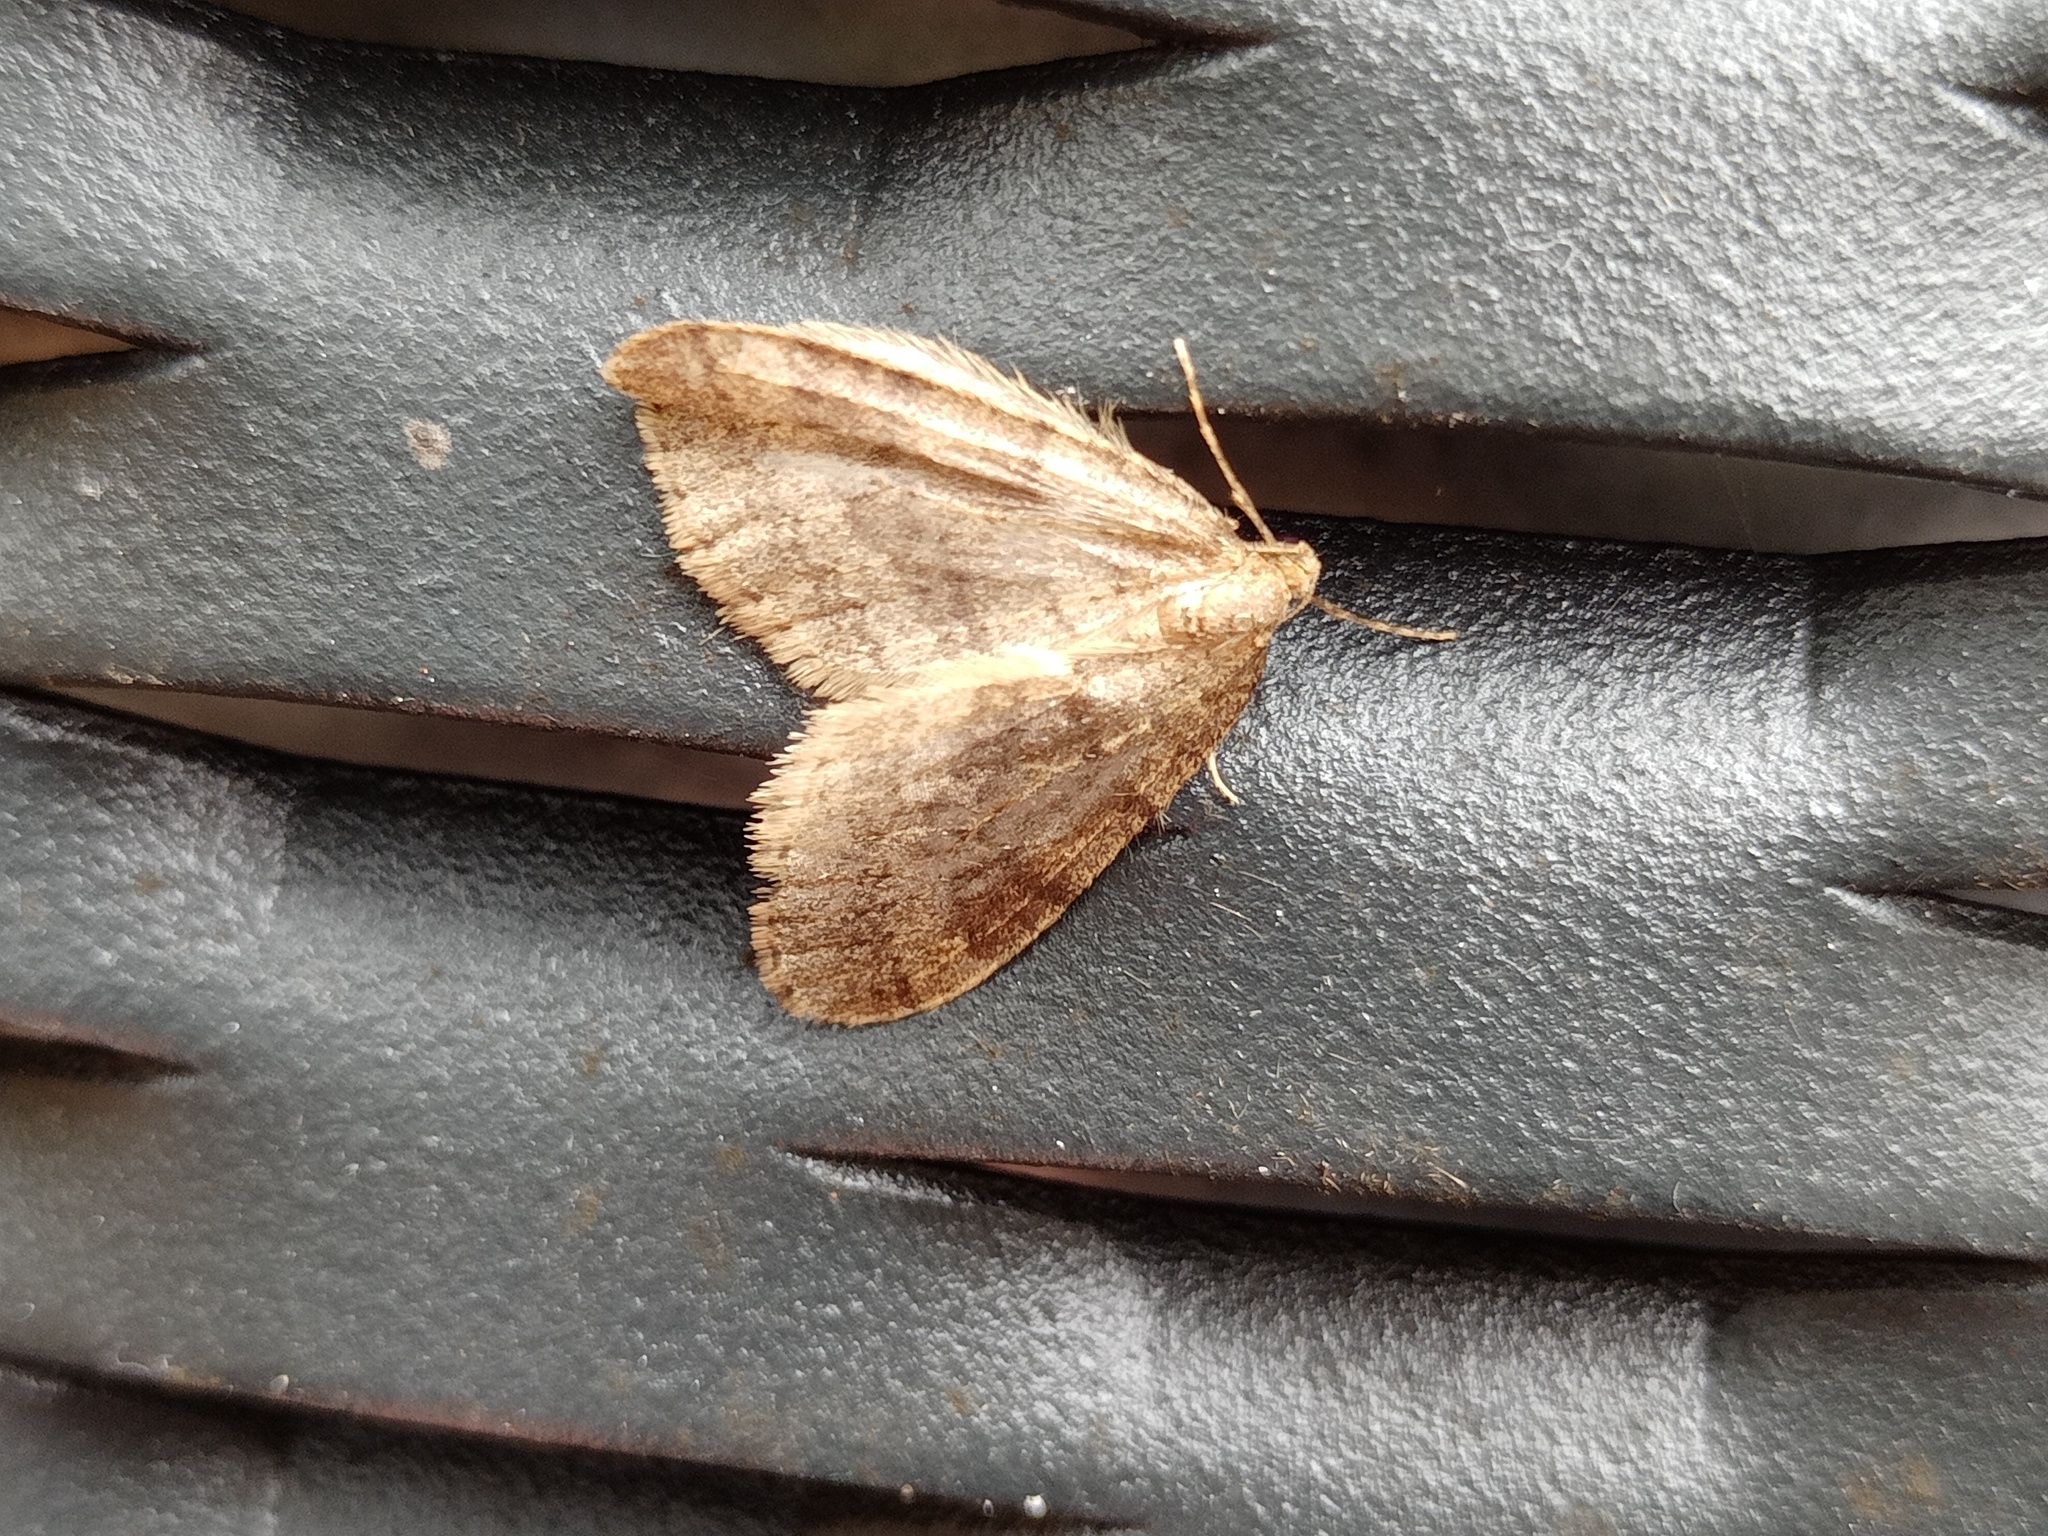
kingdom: Animalia
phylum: Arthropoda
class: Insecta
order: Lepidoptera
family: Geometridae
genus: Operophtera
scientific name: Operophtera brumata
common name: Winter moth
